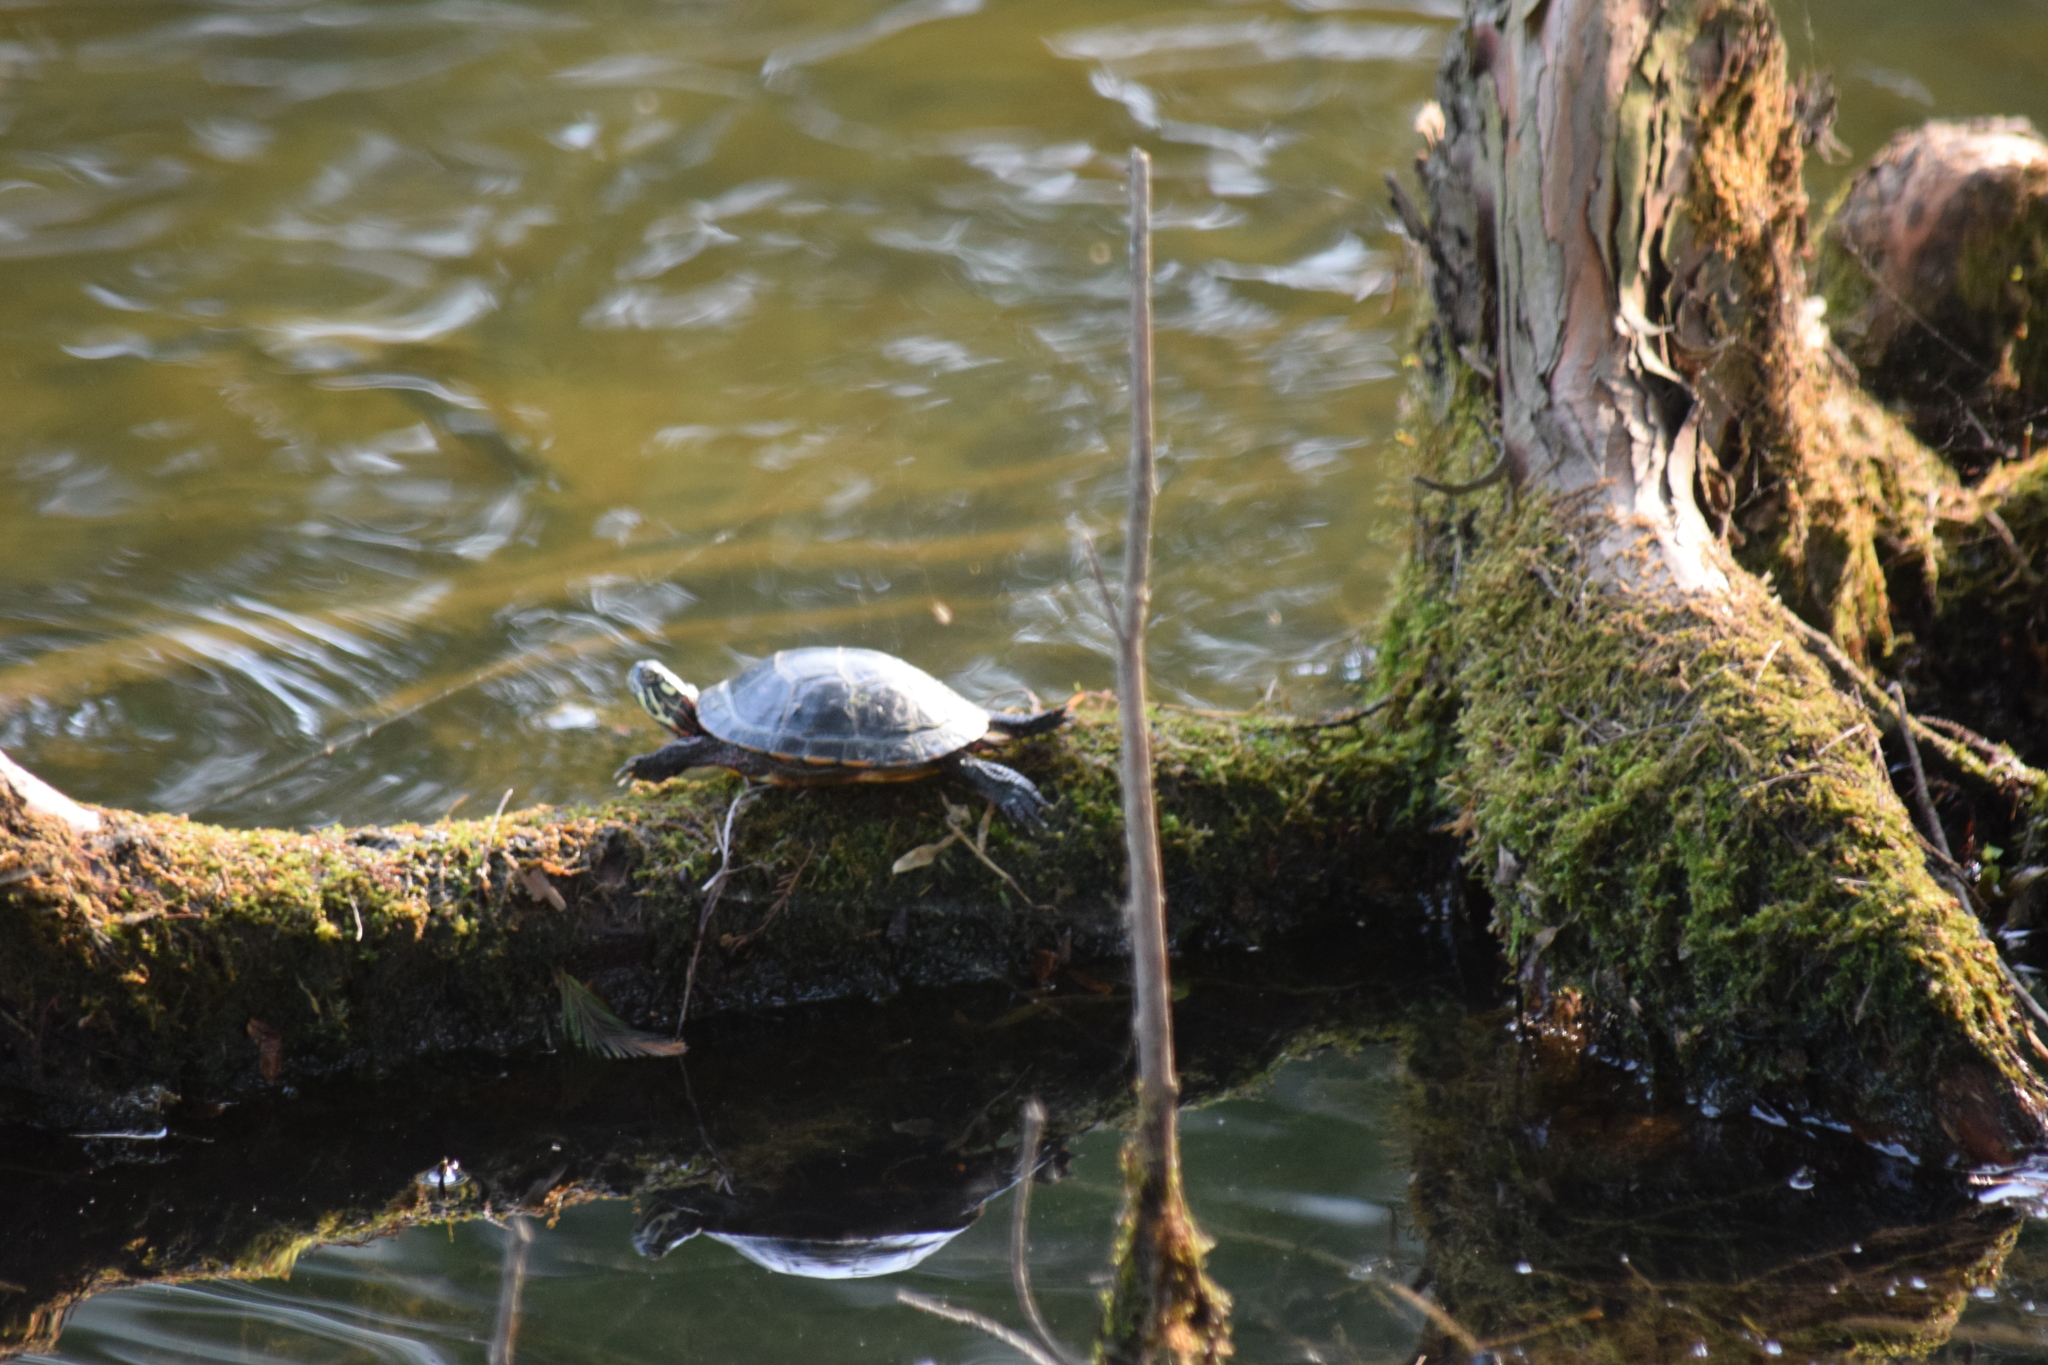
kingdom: Animalia
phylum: Chordata
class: Testudines
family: Emydidae
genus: Chrysemys
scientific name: Chrysemys picta
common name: Painted turtle
